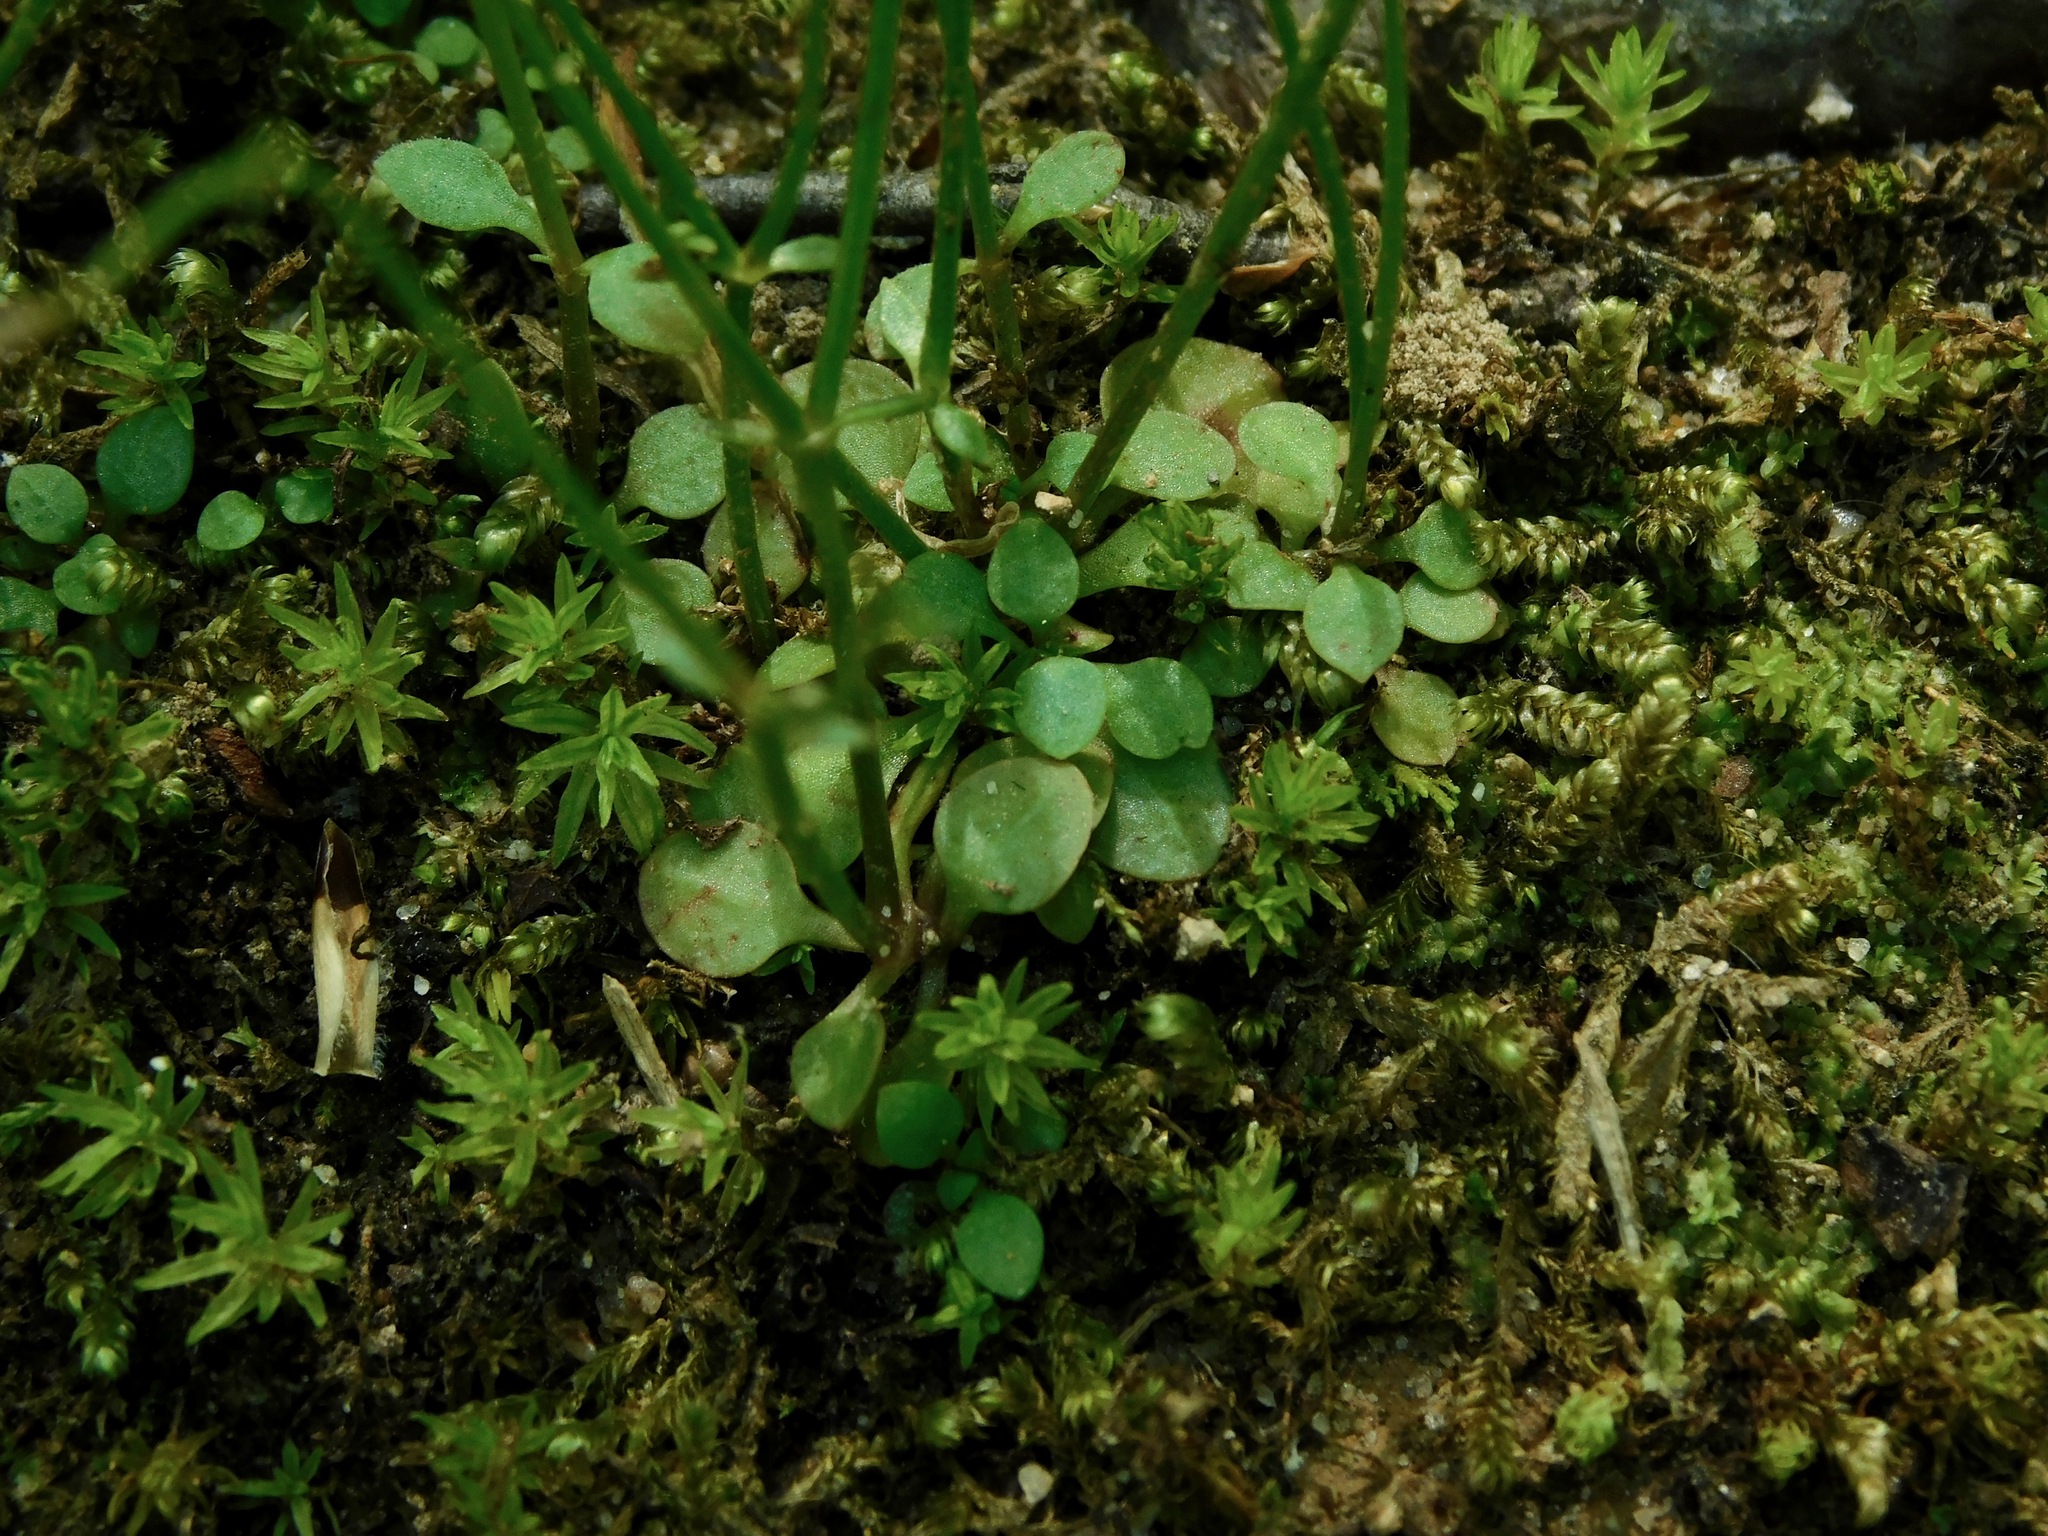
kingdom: Plantae
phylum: Tracheophyta
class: Magnoliopsida
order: Gentianales
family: Rubiaceae
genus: Houstonia
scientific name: Houstonia caerulea
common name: Bluets
